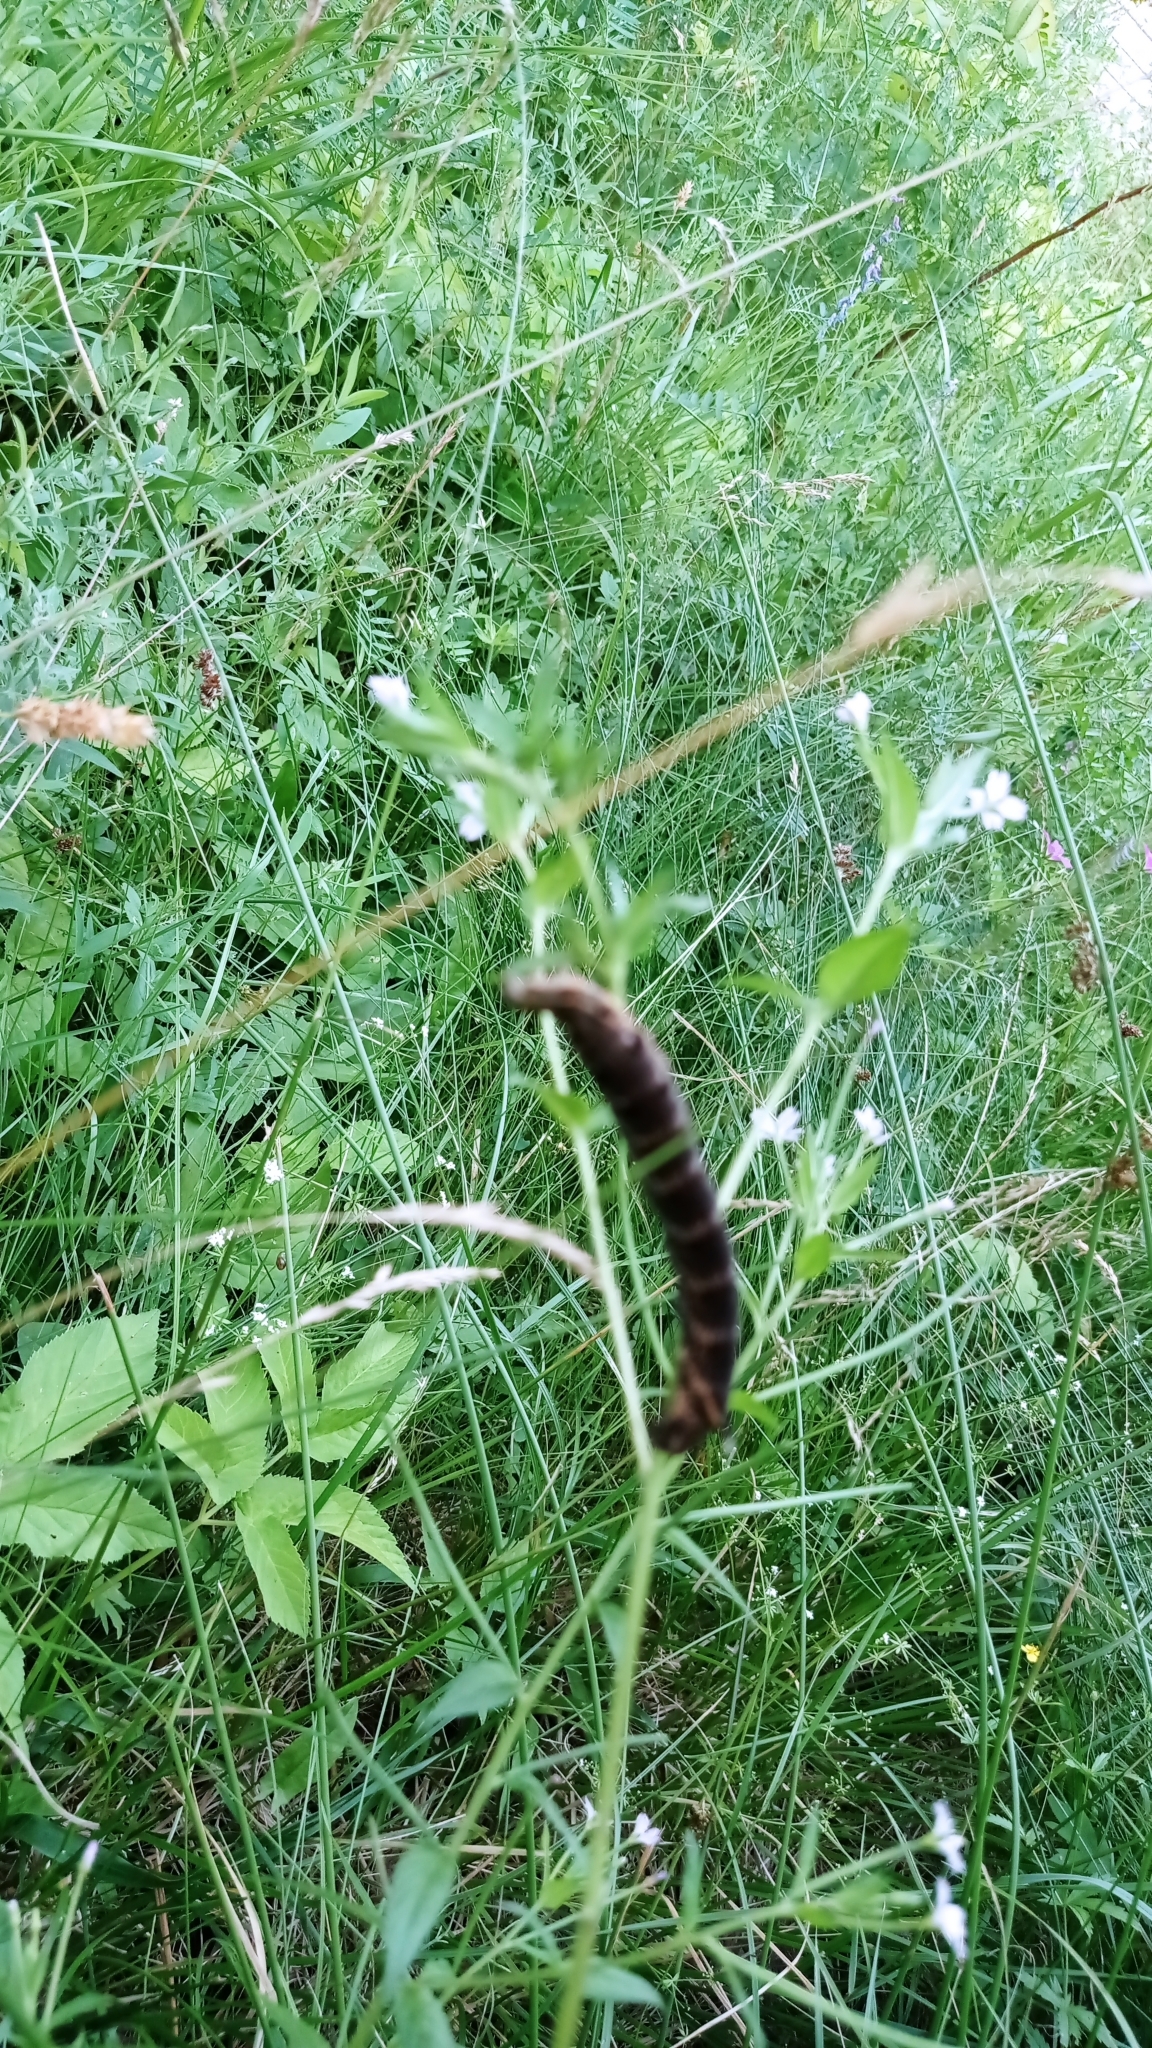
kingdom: Animalia
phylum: Arthropoda
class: Insecta
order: Lepidoptera
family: Sphingidae
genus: Deilephila
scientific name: Deilephila elpenor
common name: Elephant hawk-moth
